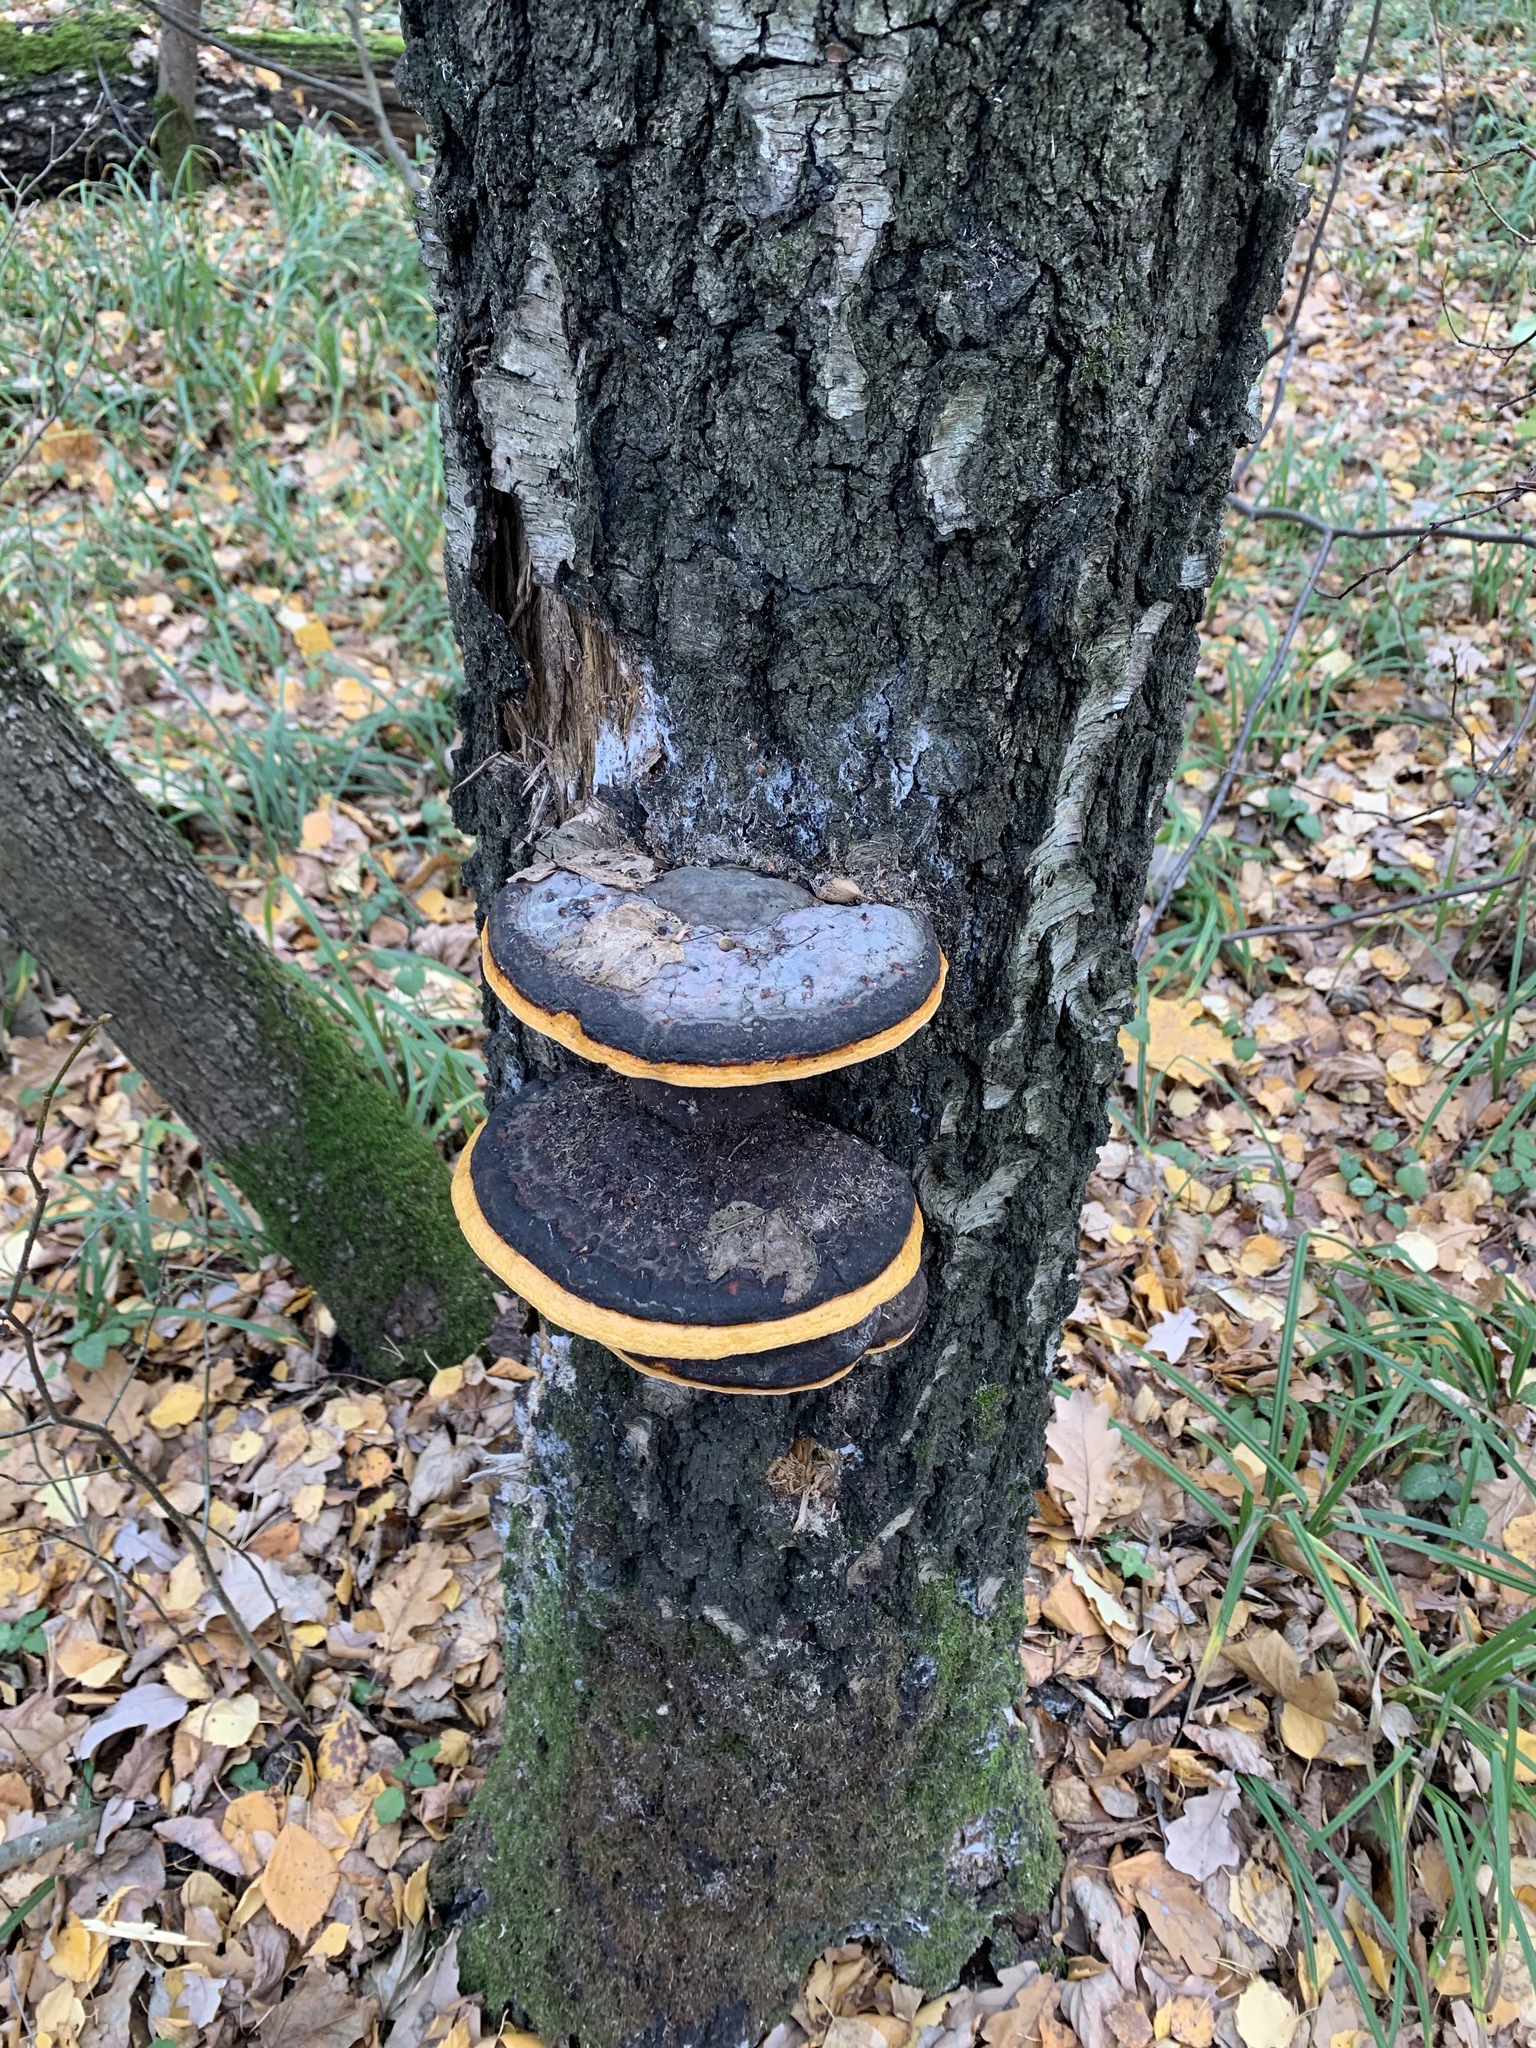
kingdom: Fungi
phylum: Basidiomycota
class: Agaricomycetes
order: Polyporales
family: Fomitopsidaceae
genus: Fomitopsis
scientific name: Fomitopsis pinicola
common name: Red-belted bracket
